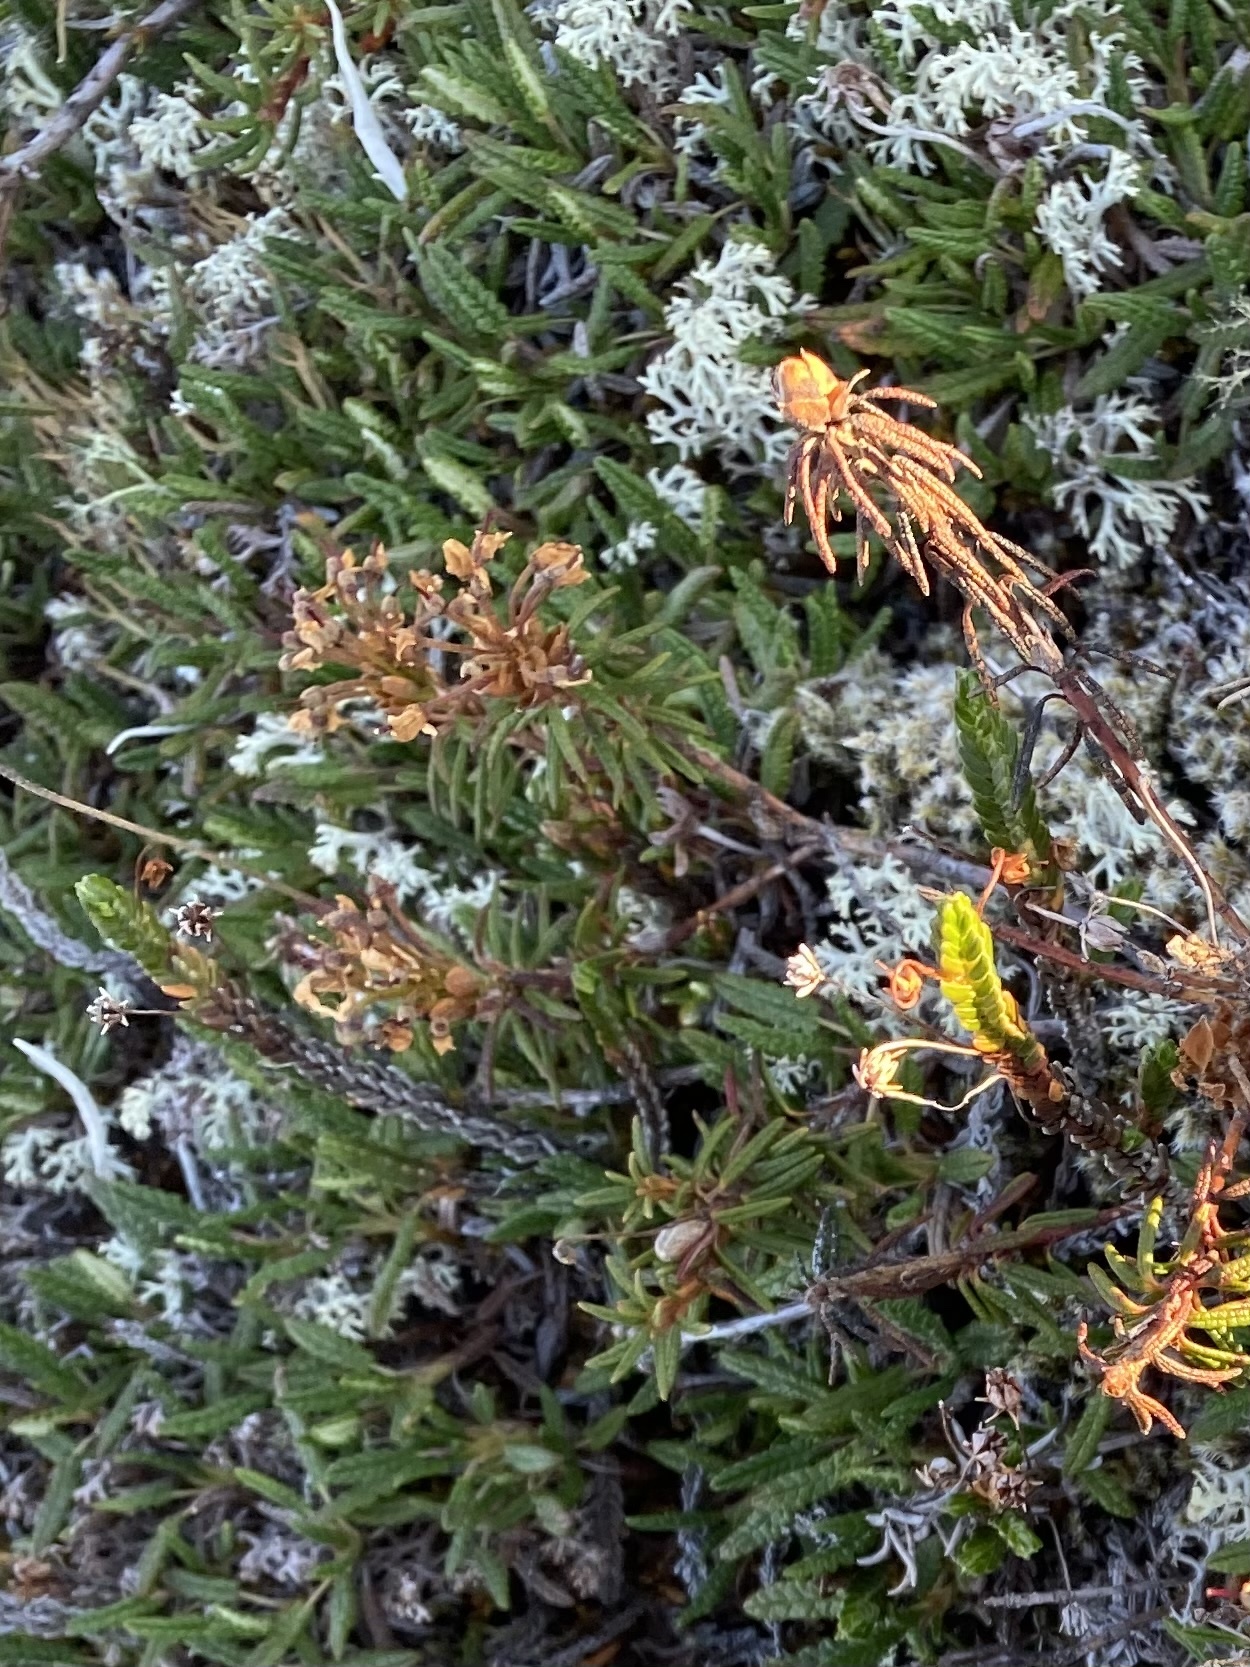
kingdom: Plantae
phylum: Tracheophyta
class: Magnoliopsida
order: Ericales
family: Ericaceae
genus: Cassiope
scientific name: Cassiope tetragona
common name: Arctic bell heather
